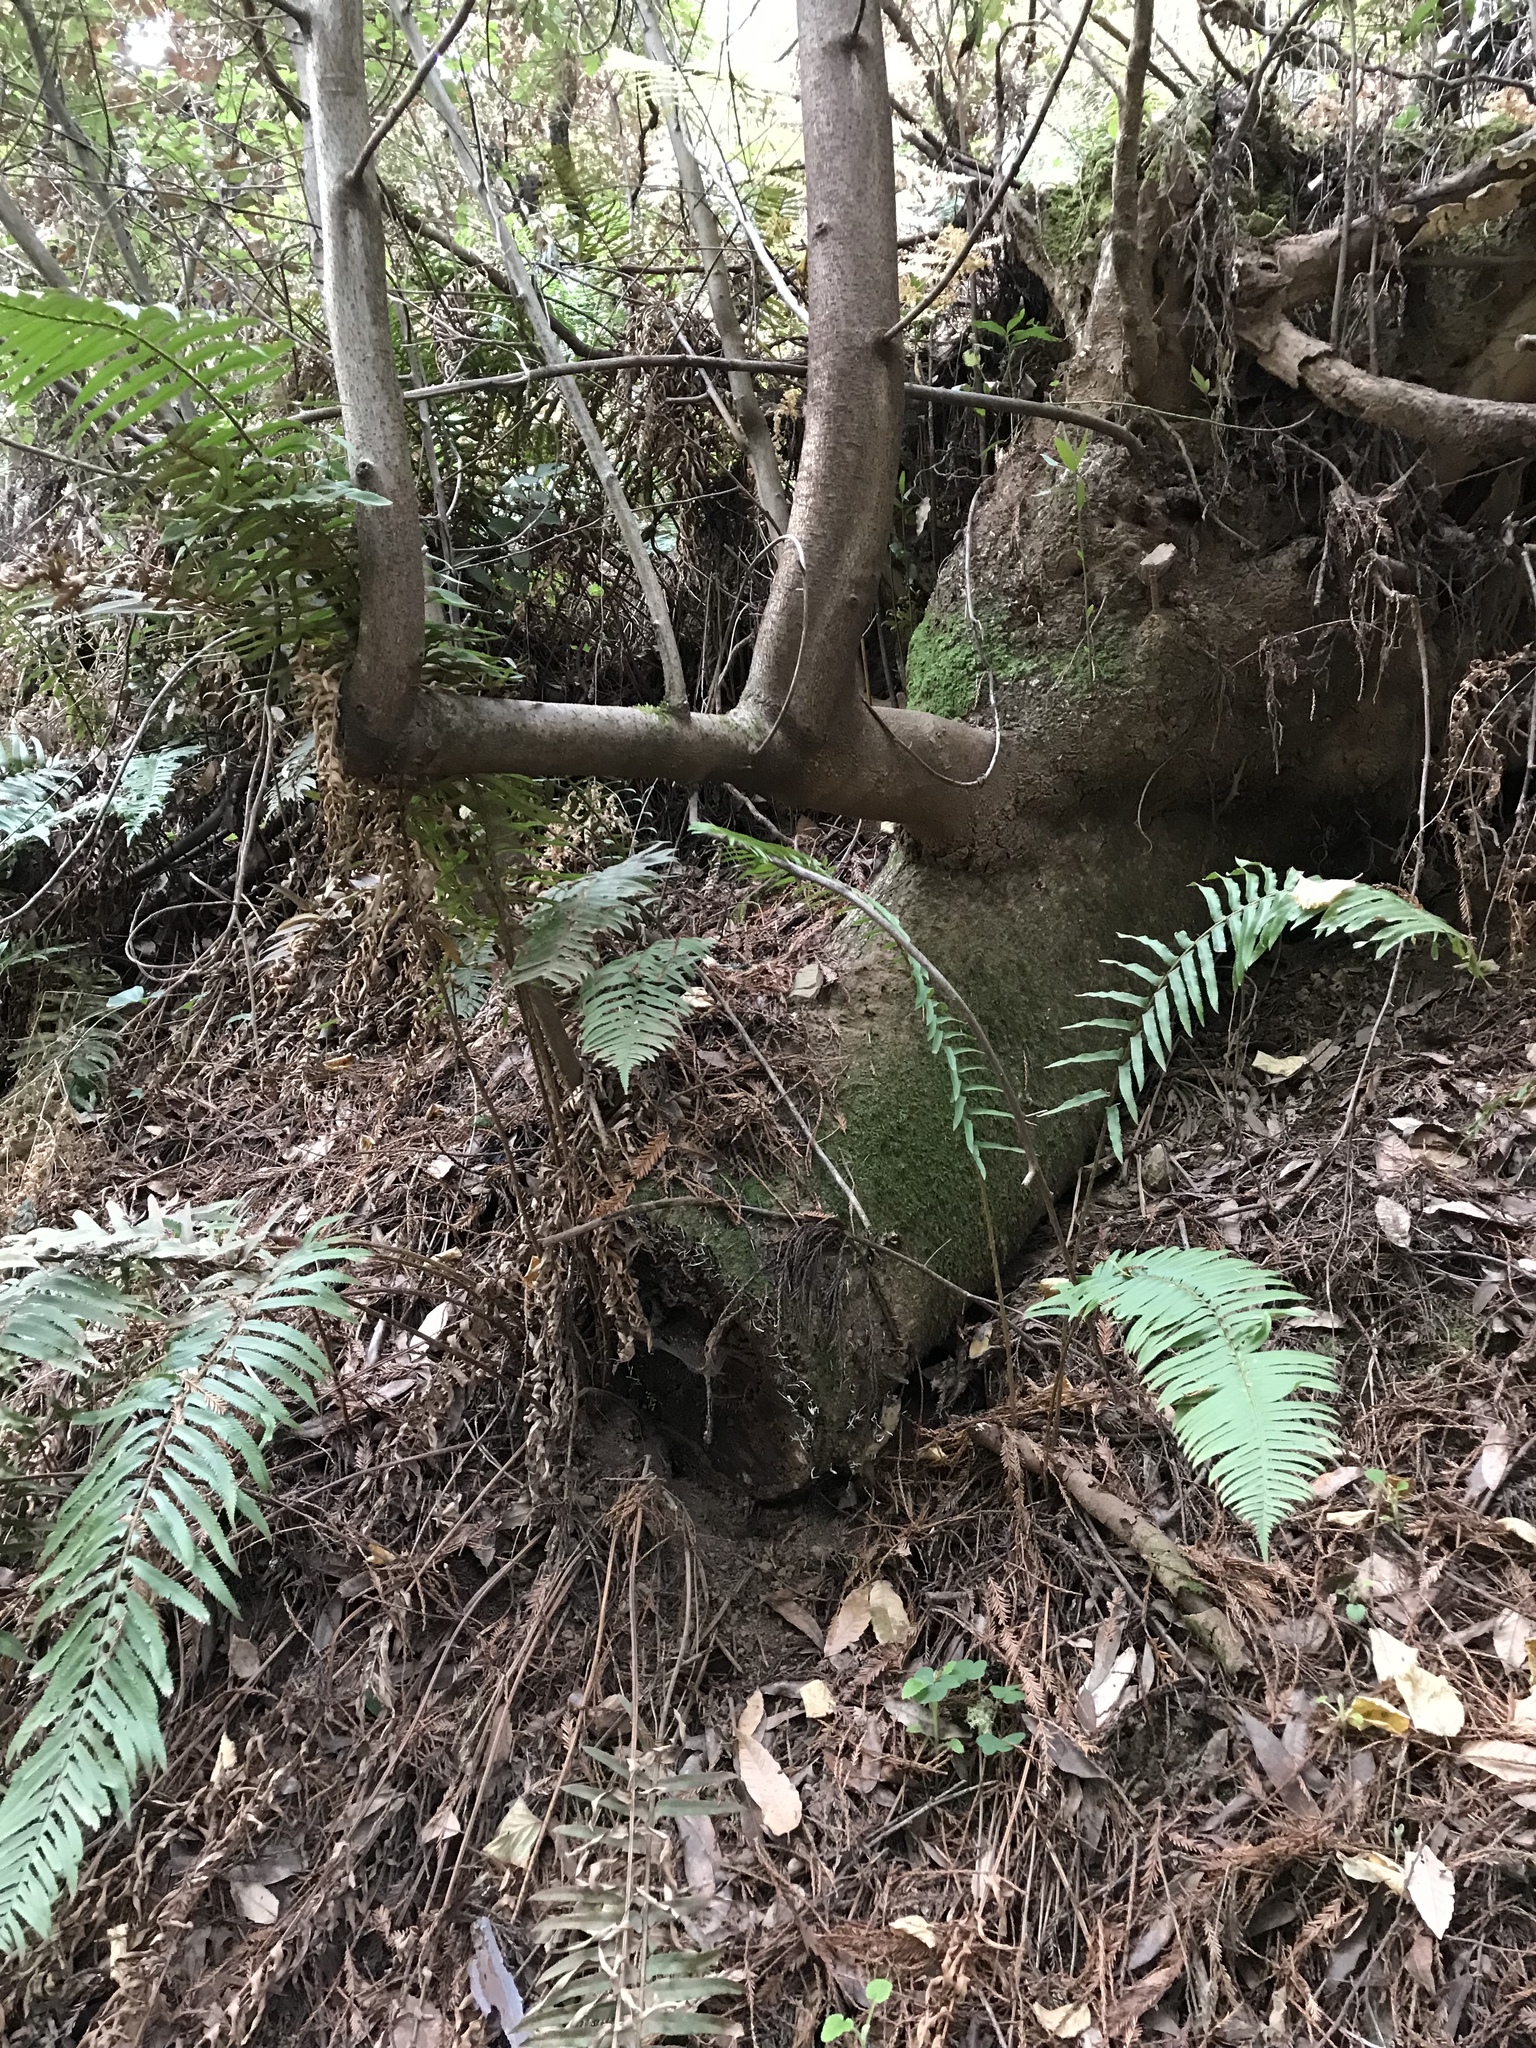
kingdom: Plantae
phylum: Tracheophyta
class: Magnoliopsida
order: Laurales
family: Lauraceae
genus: Umbellularia
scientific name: Umbellularia californica
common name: California bay
